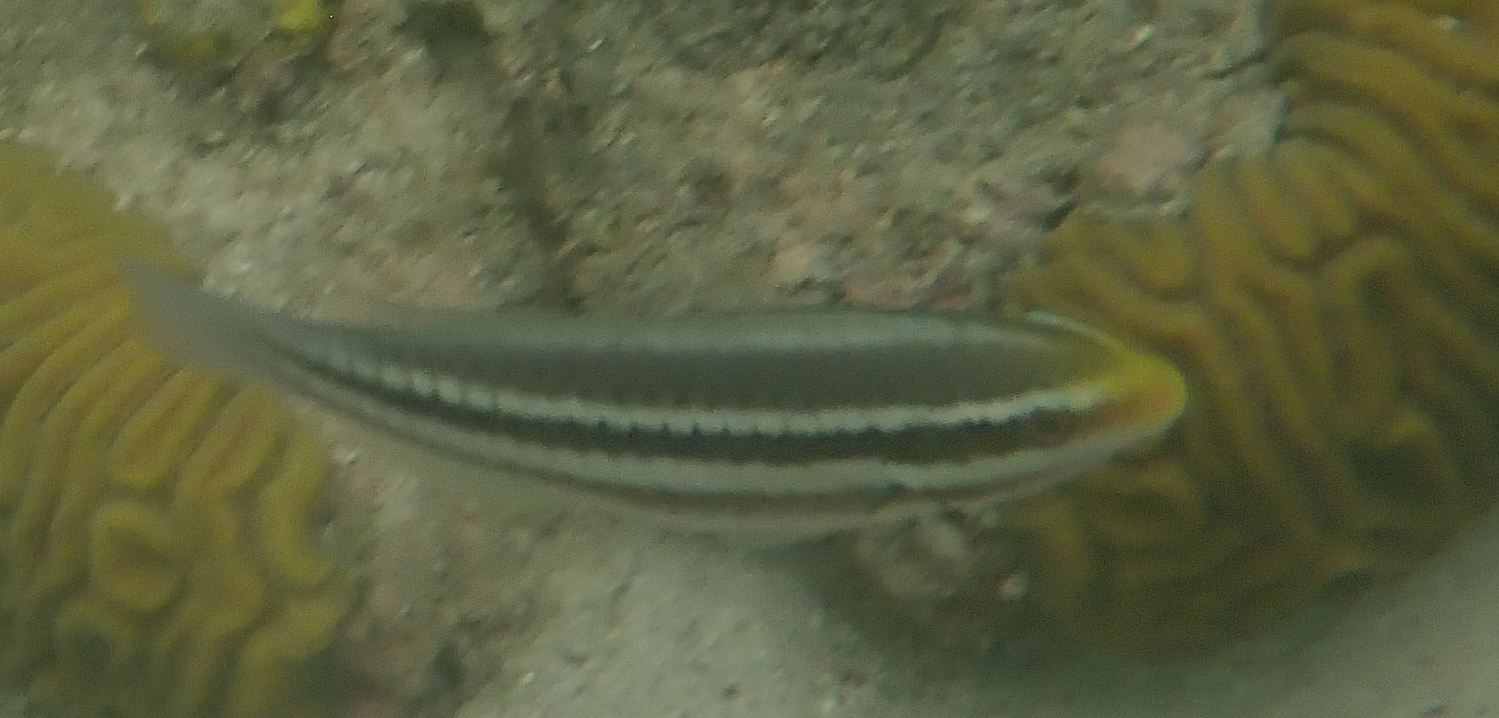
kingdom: Animalia
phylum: Chordata
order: Perciformes
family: Scaridae
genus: Scarus
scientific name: Scarus iseri
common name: Striped parrotfish
